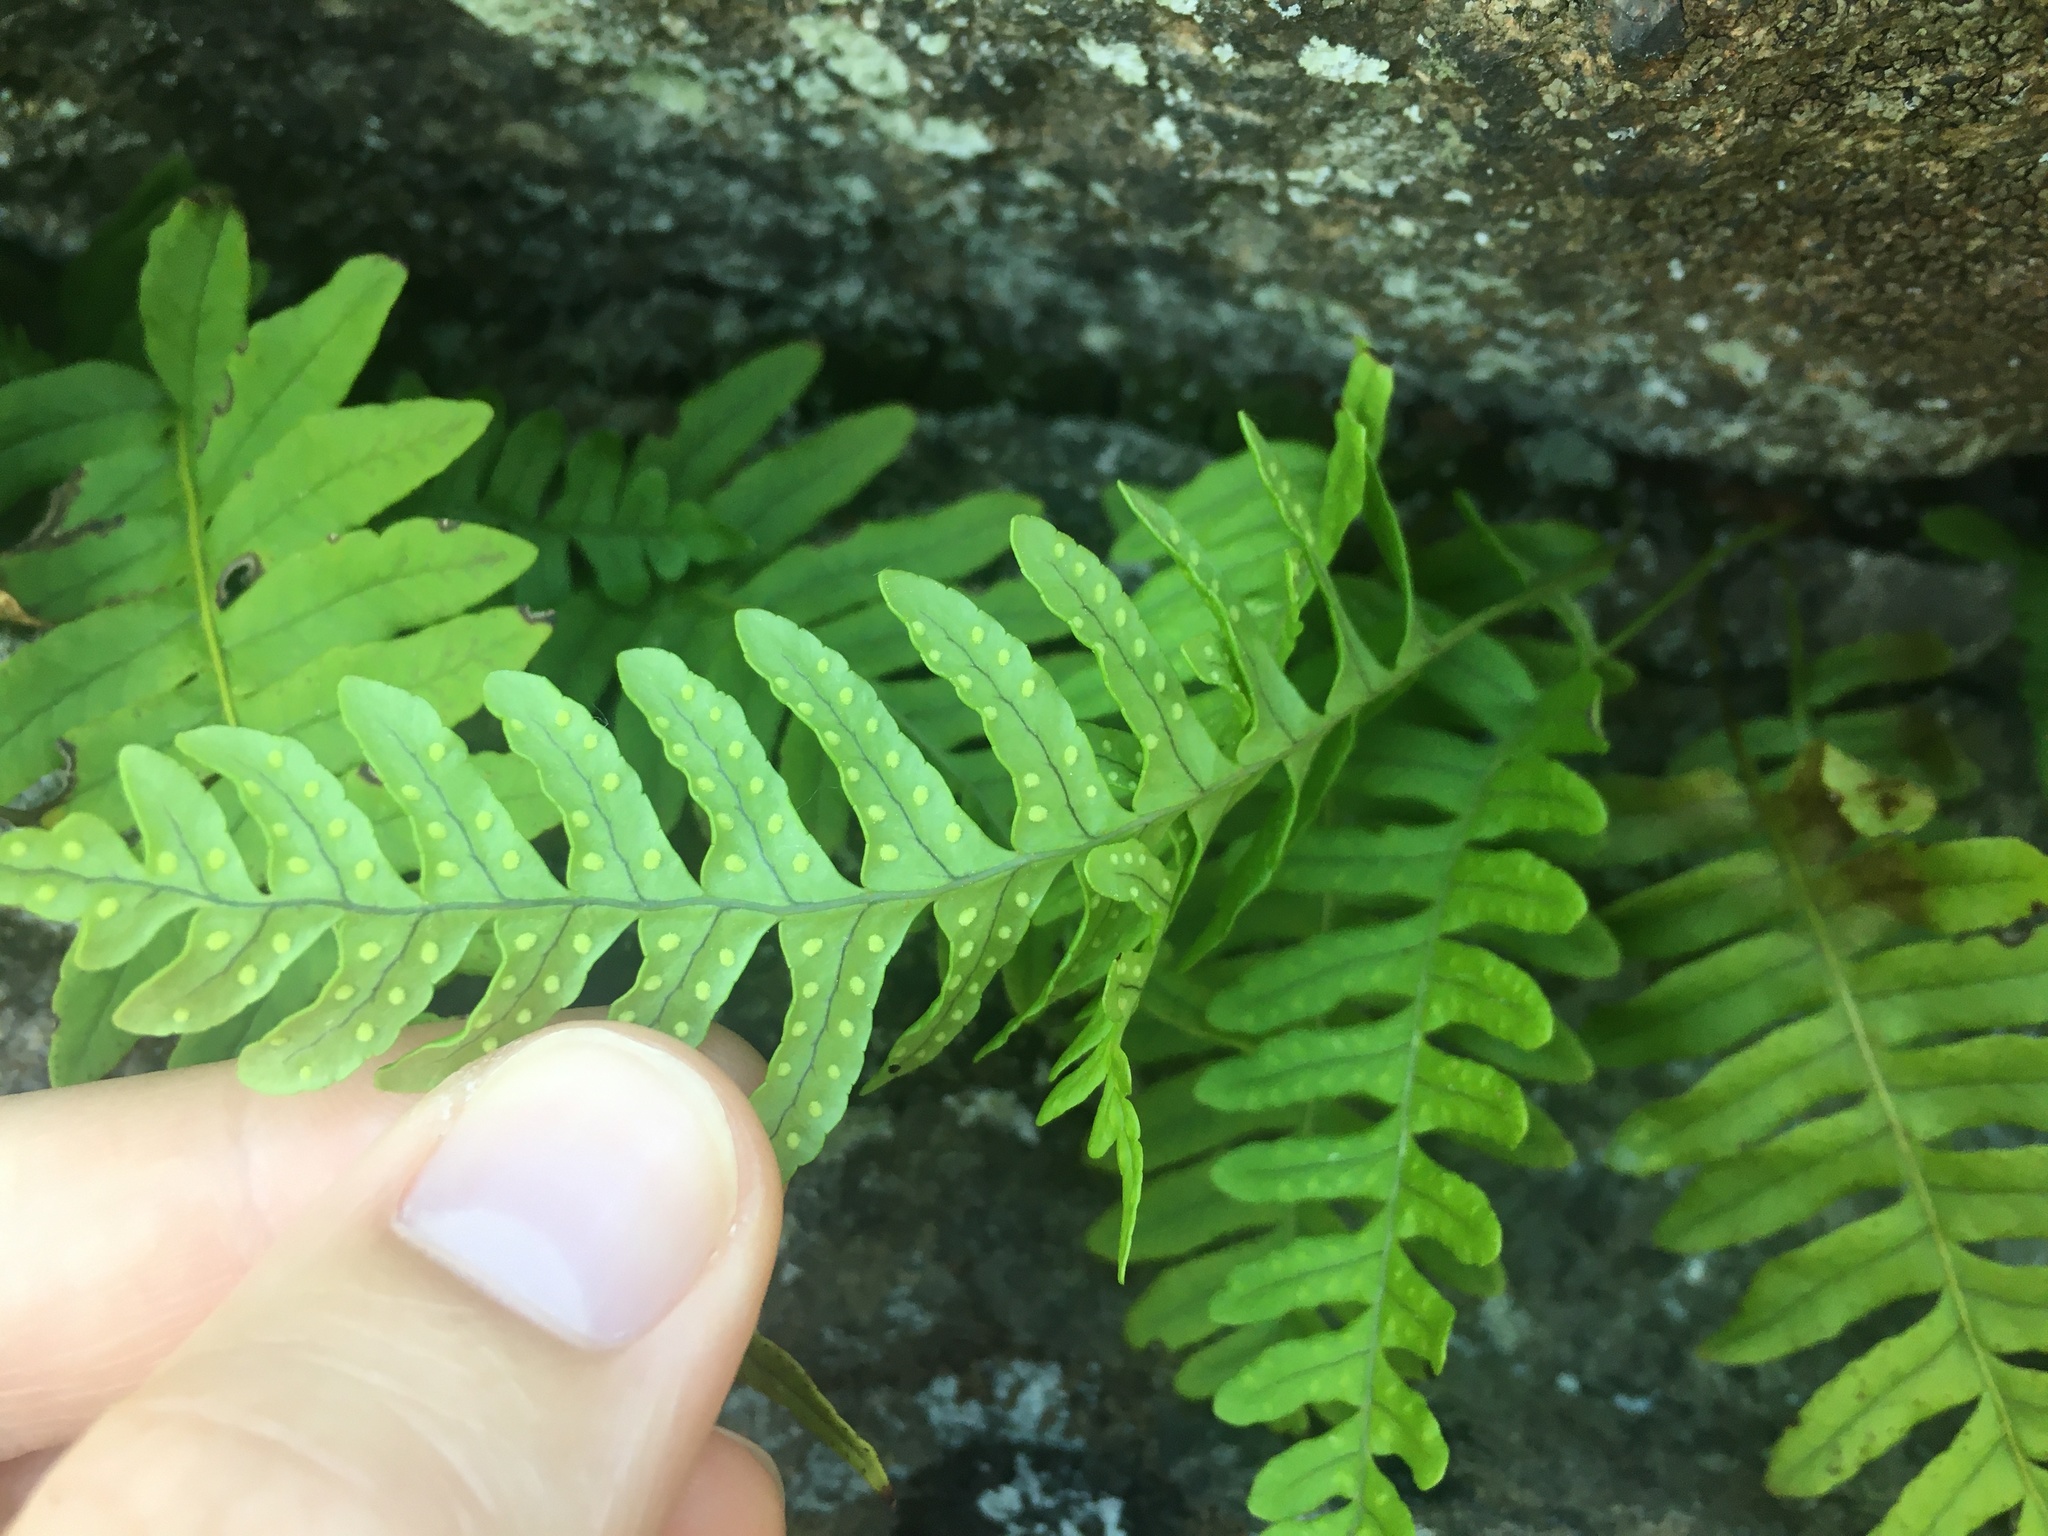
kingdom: Plantae
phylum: Tracheophyta
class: Polypodiopsida
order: Polypodiales
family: Polypodiaceae
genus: Polypodium
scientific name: Polypodium virginianum
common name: American wall fern
